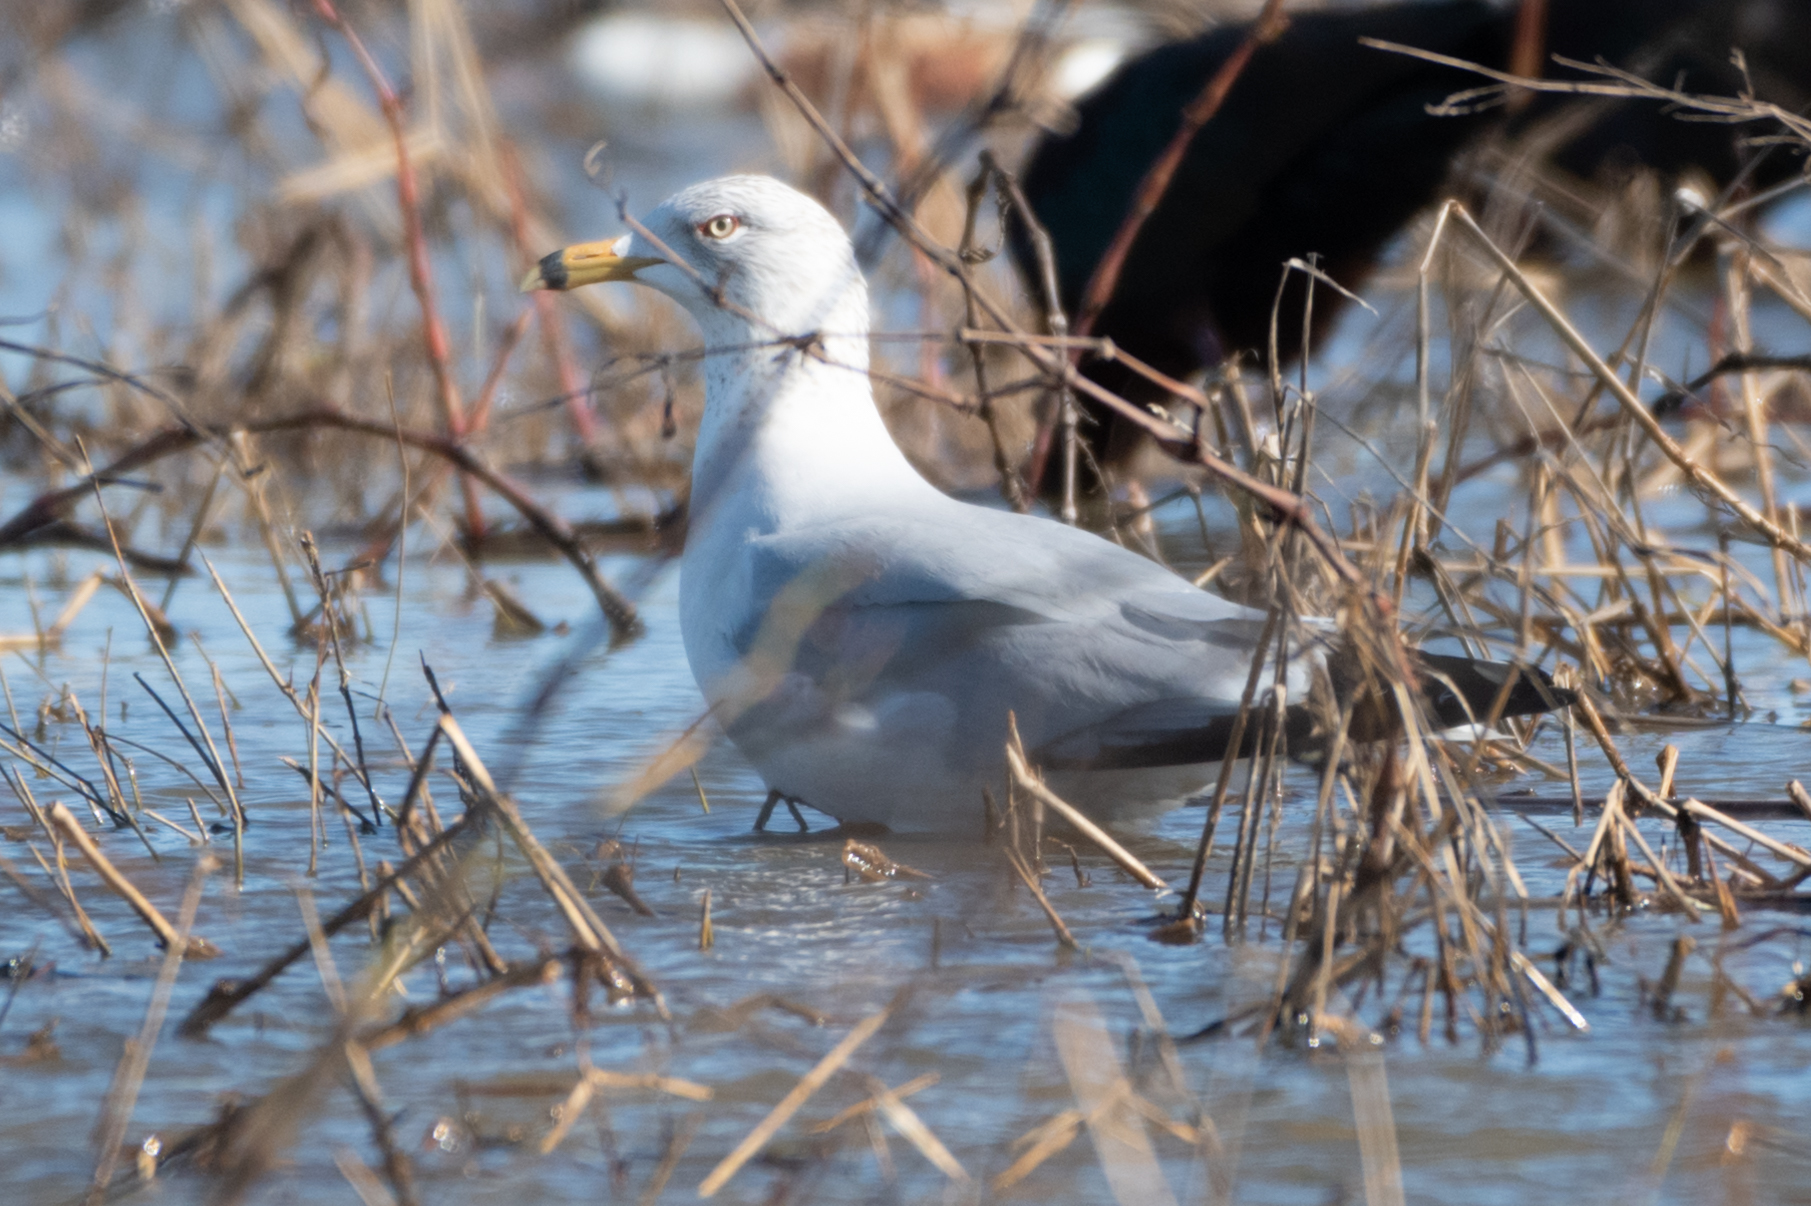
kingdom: Animalia
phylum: Chordata
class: Aves
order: Charadriiformes
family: Laridae
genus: Larus
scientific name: Larus delawarensis
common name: Ring-billed gull
